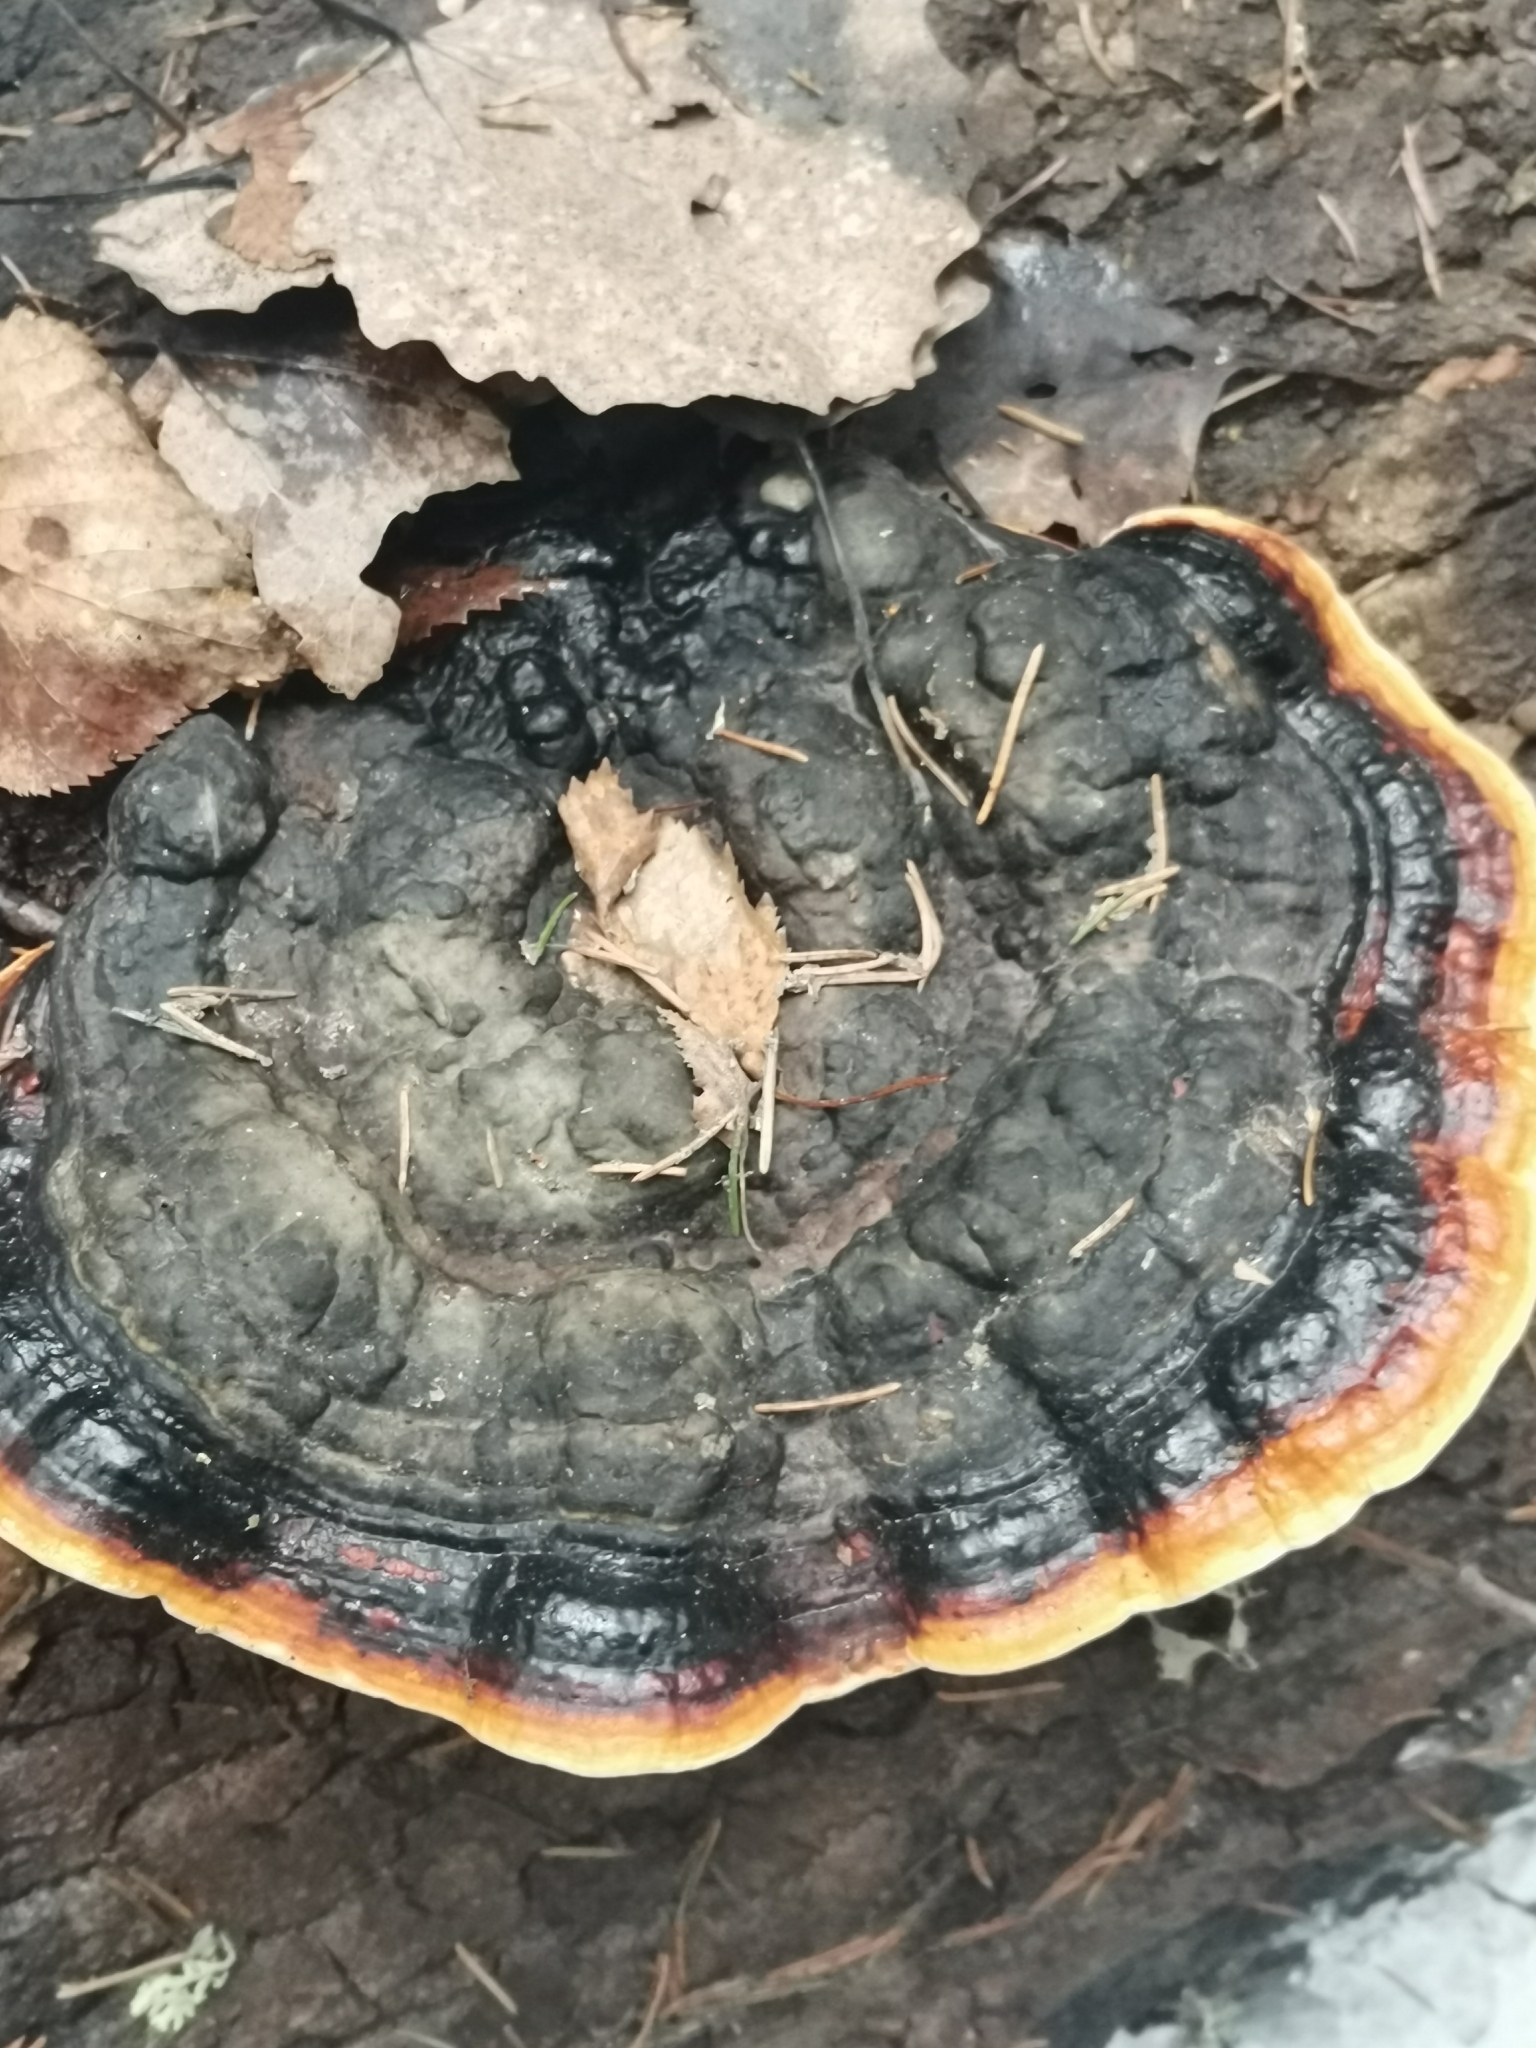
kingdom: Fungi
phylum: Basidiomycota
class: Agaricomycetes
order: Polyporales
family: Fomitopsidaceae
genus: Fomitopsis
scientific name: Fomitopsis pinicola
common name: Red-belted bracket
